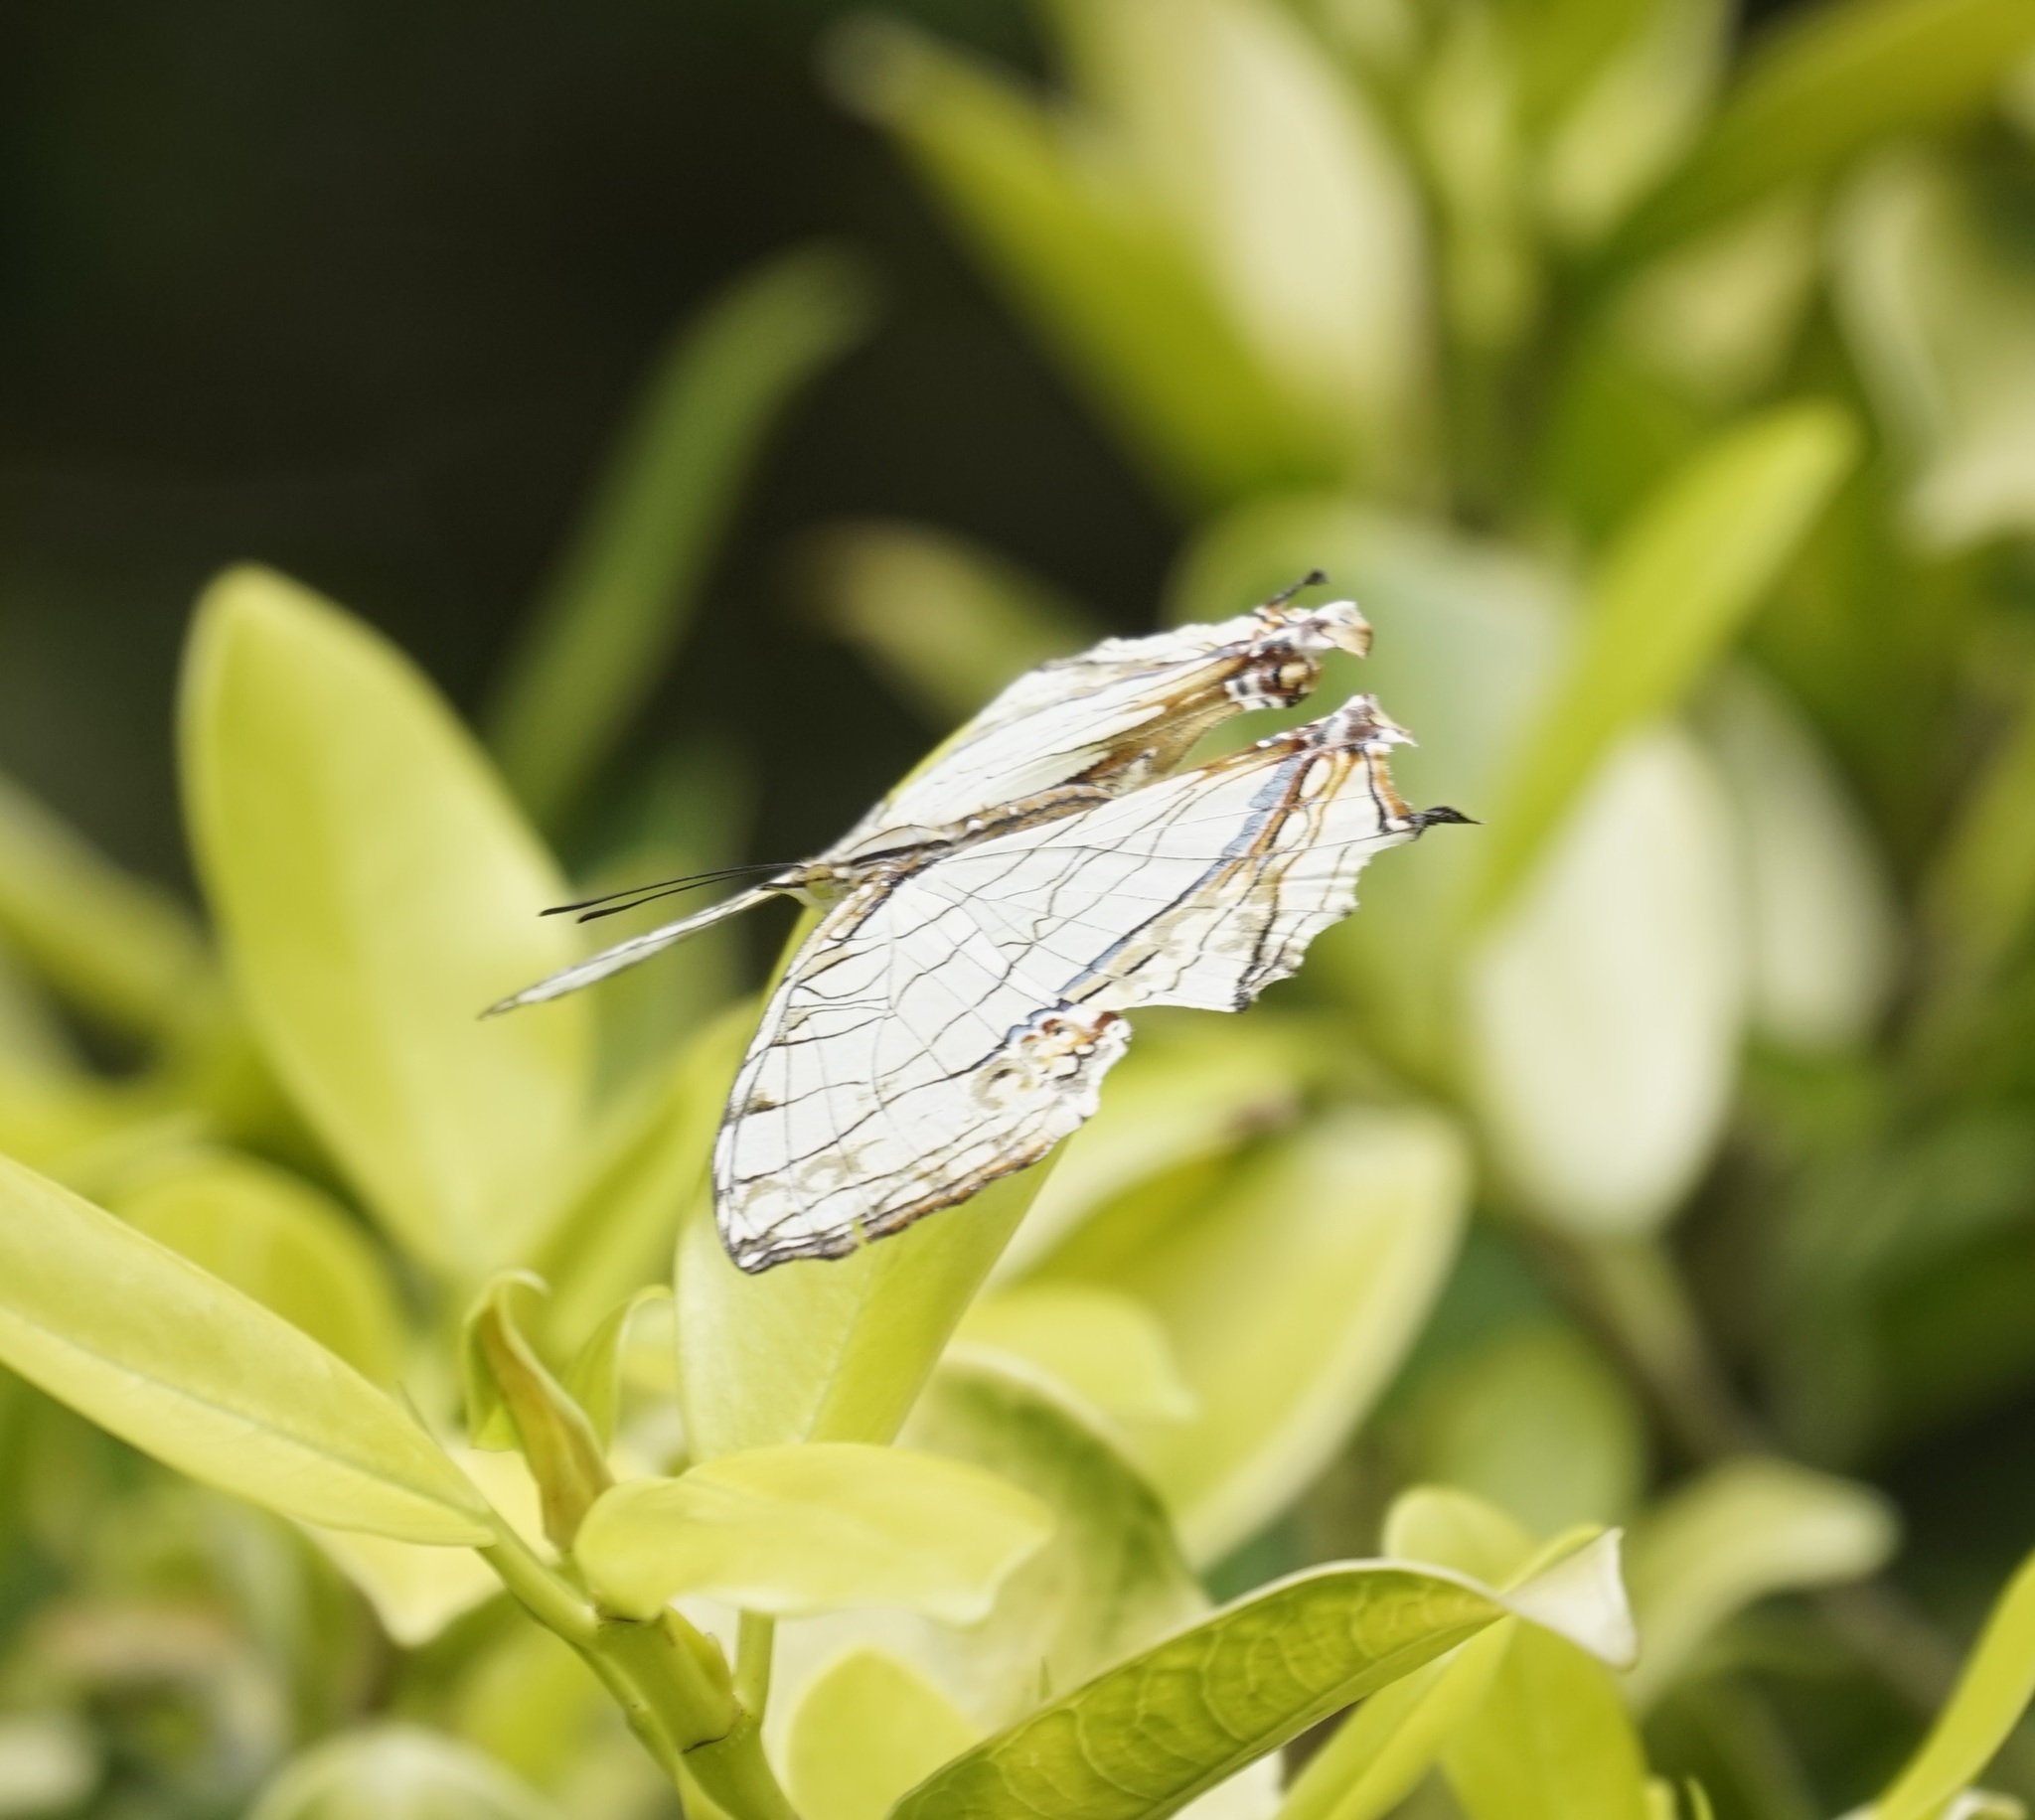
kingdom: Animalia
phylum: Arthropoda
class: Insecta
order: Lepidoptera
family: Nymphalidae
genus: Cyrestis
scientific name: Cyrestis thyodamas
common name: Common mapwing
